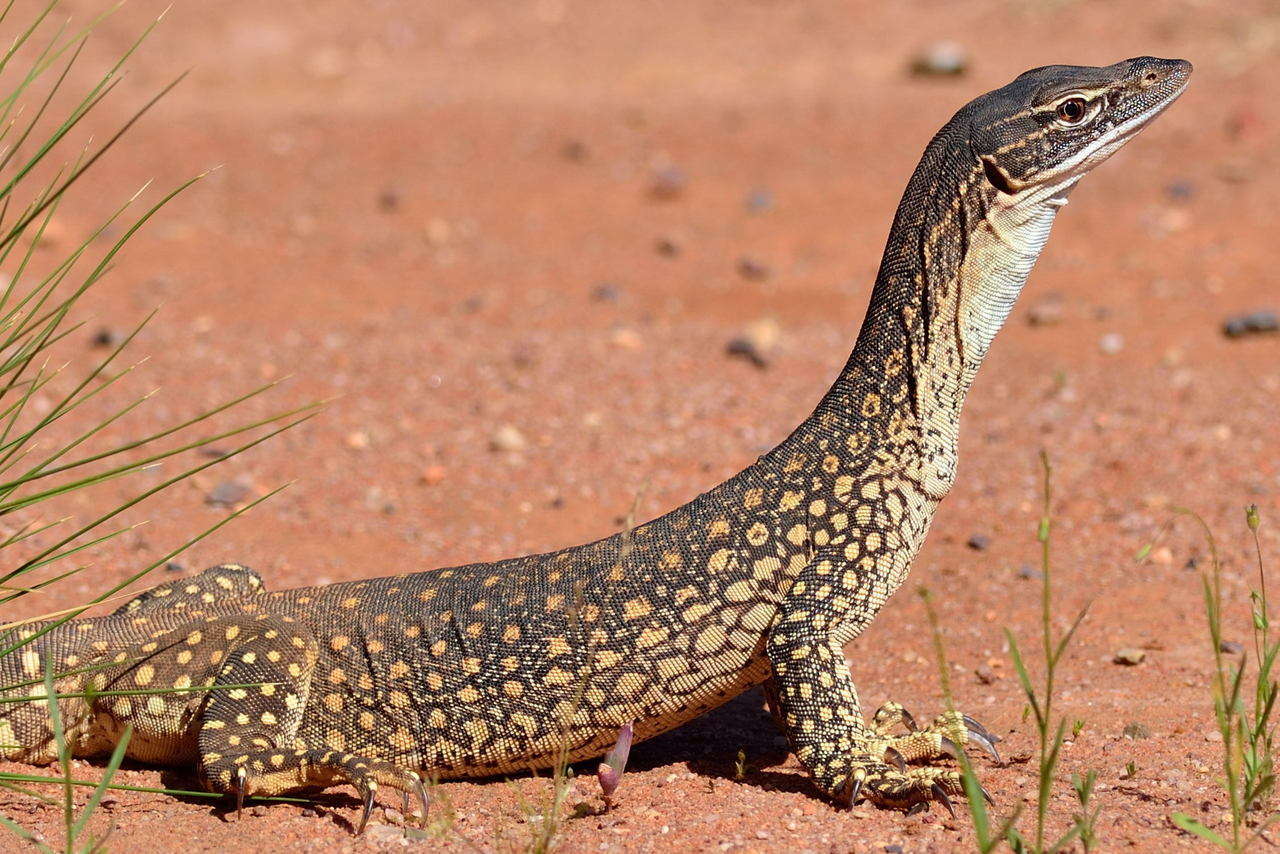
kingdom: Animalia
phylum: Chordata
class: Squamata
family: Varanidae
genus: Varanus
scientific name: Varanus gouldii
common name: Gould's goanna
